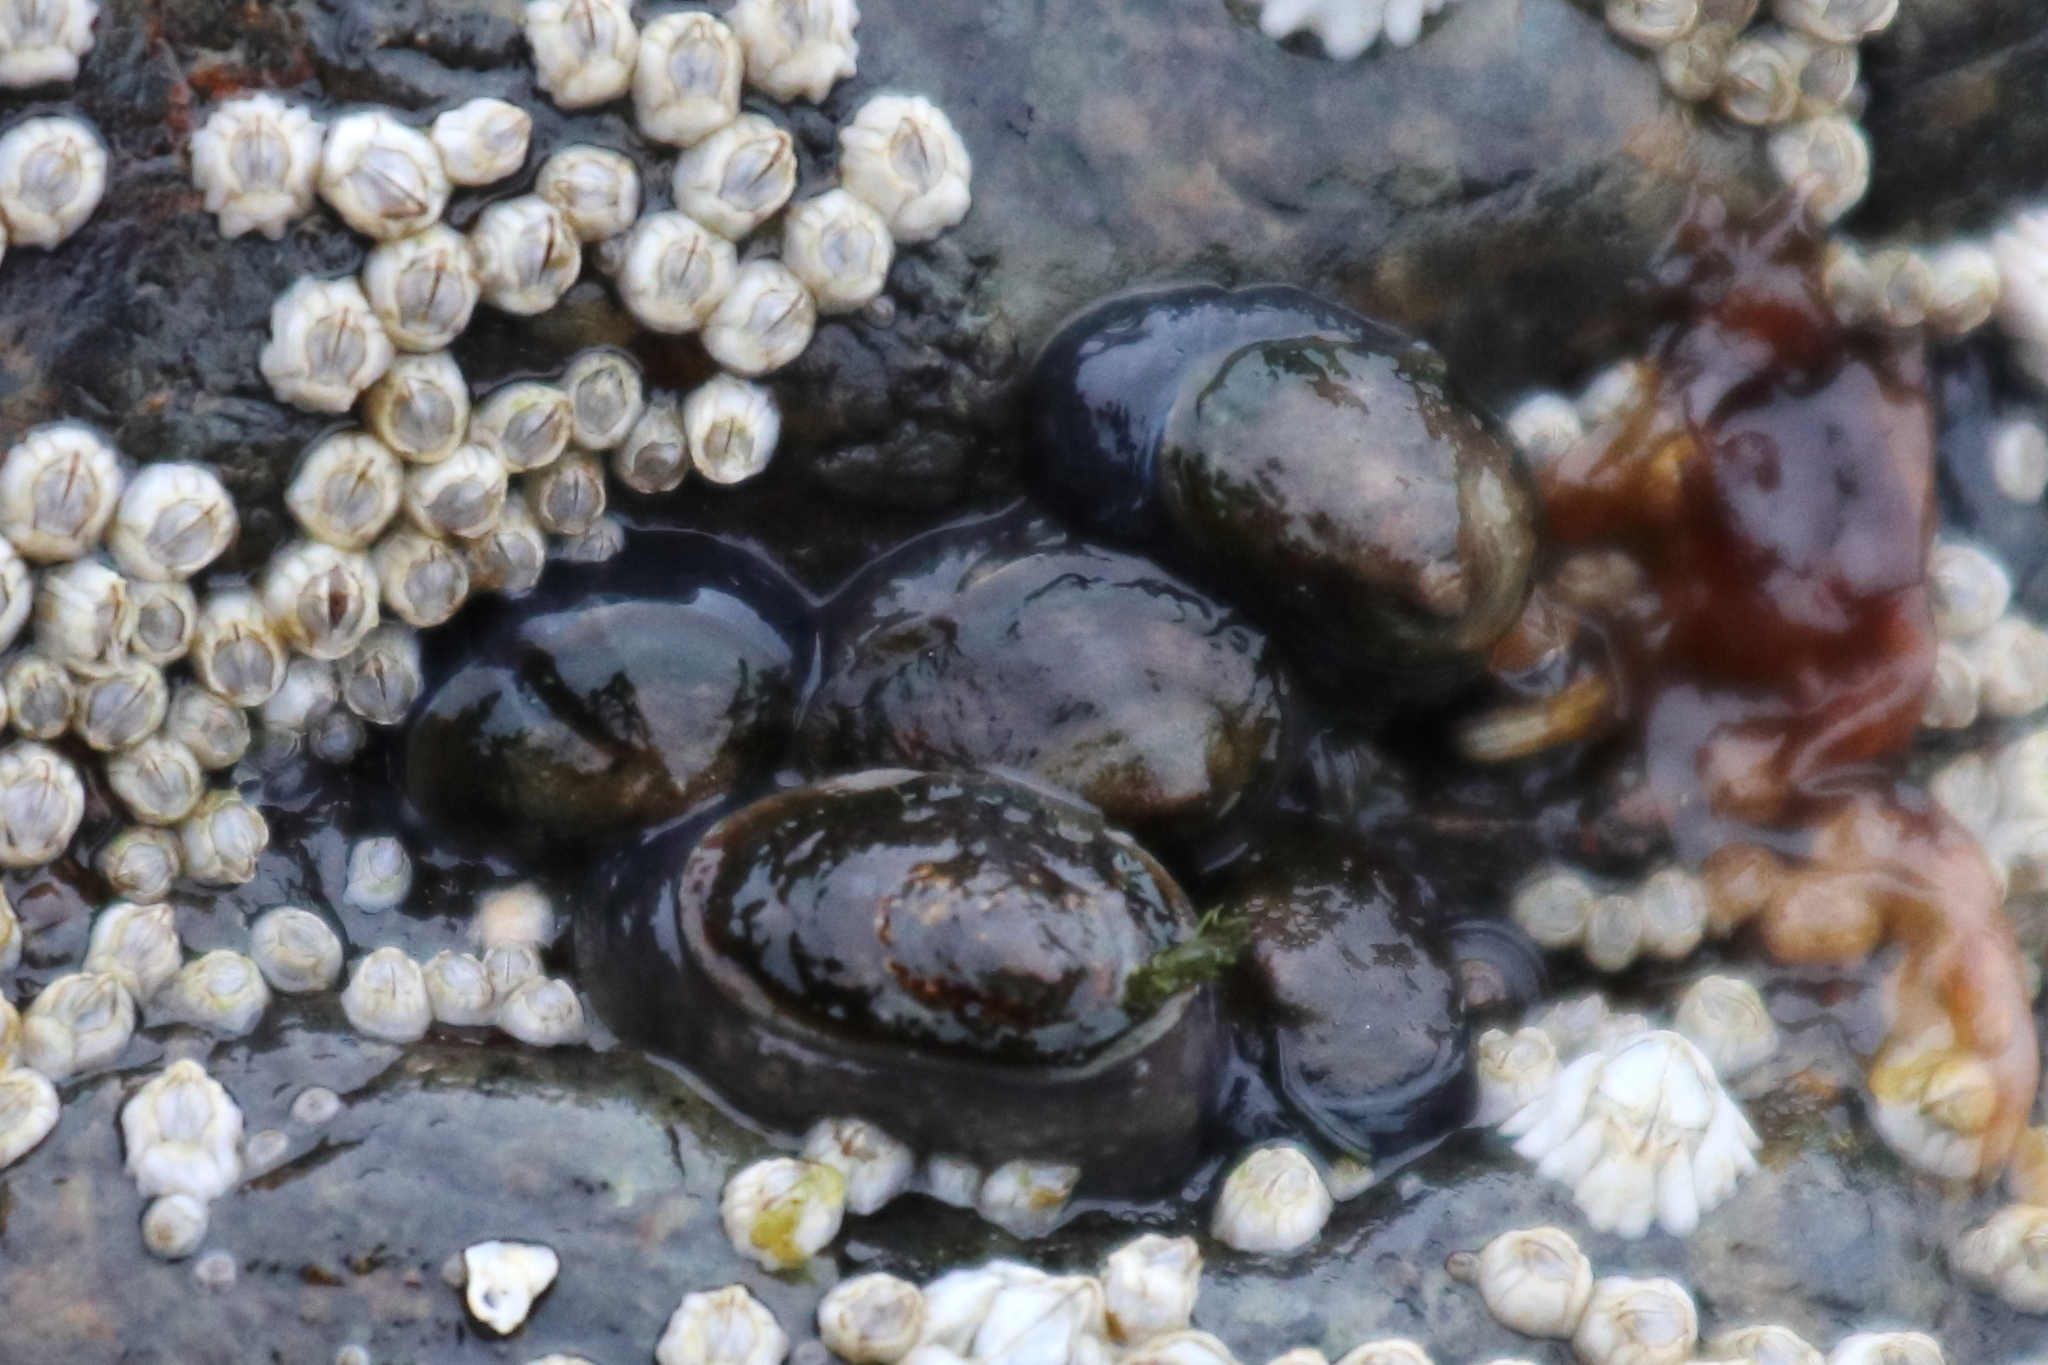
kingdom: Animalia
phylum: Mollusca
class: Gastropoda
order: Siphonariida
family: Siphonariidae
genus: Siphonaria
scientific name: Siphonaria thersites
